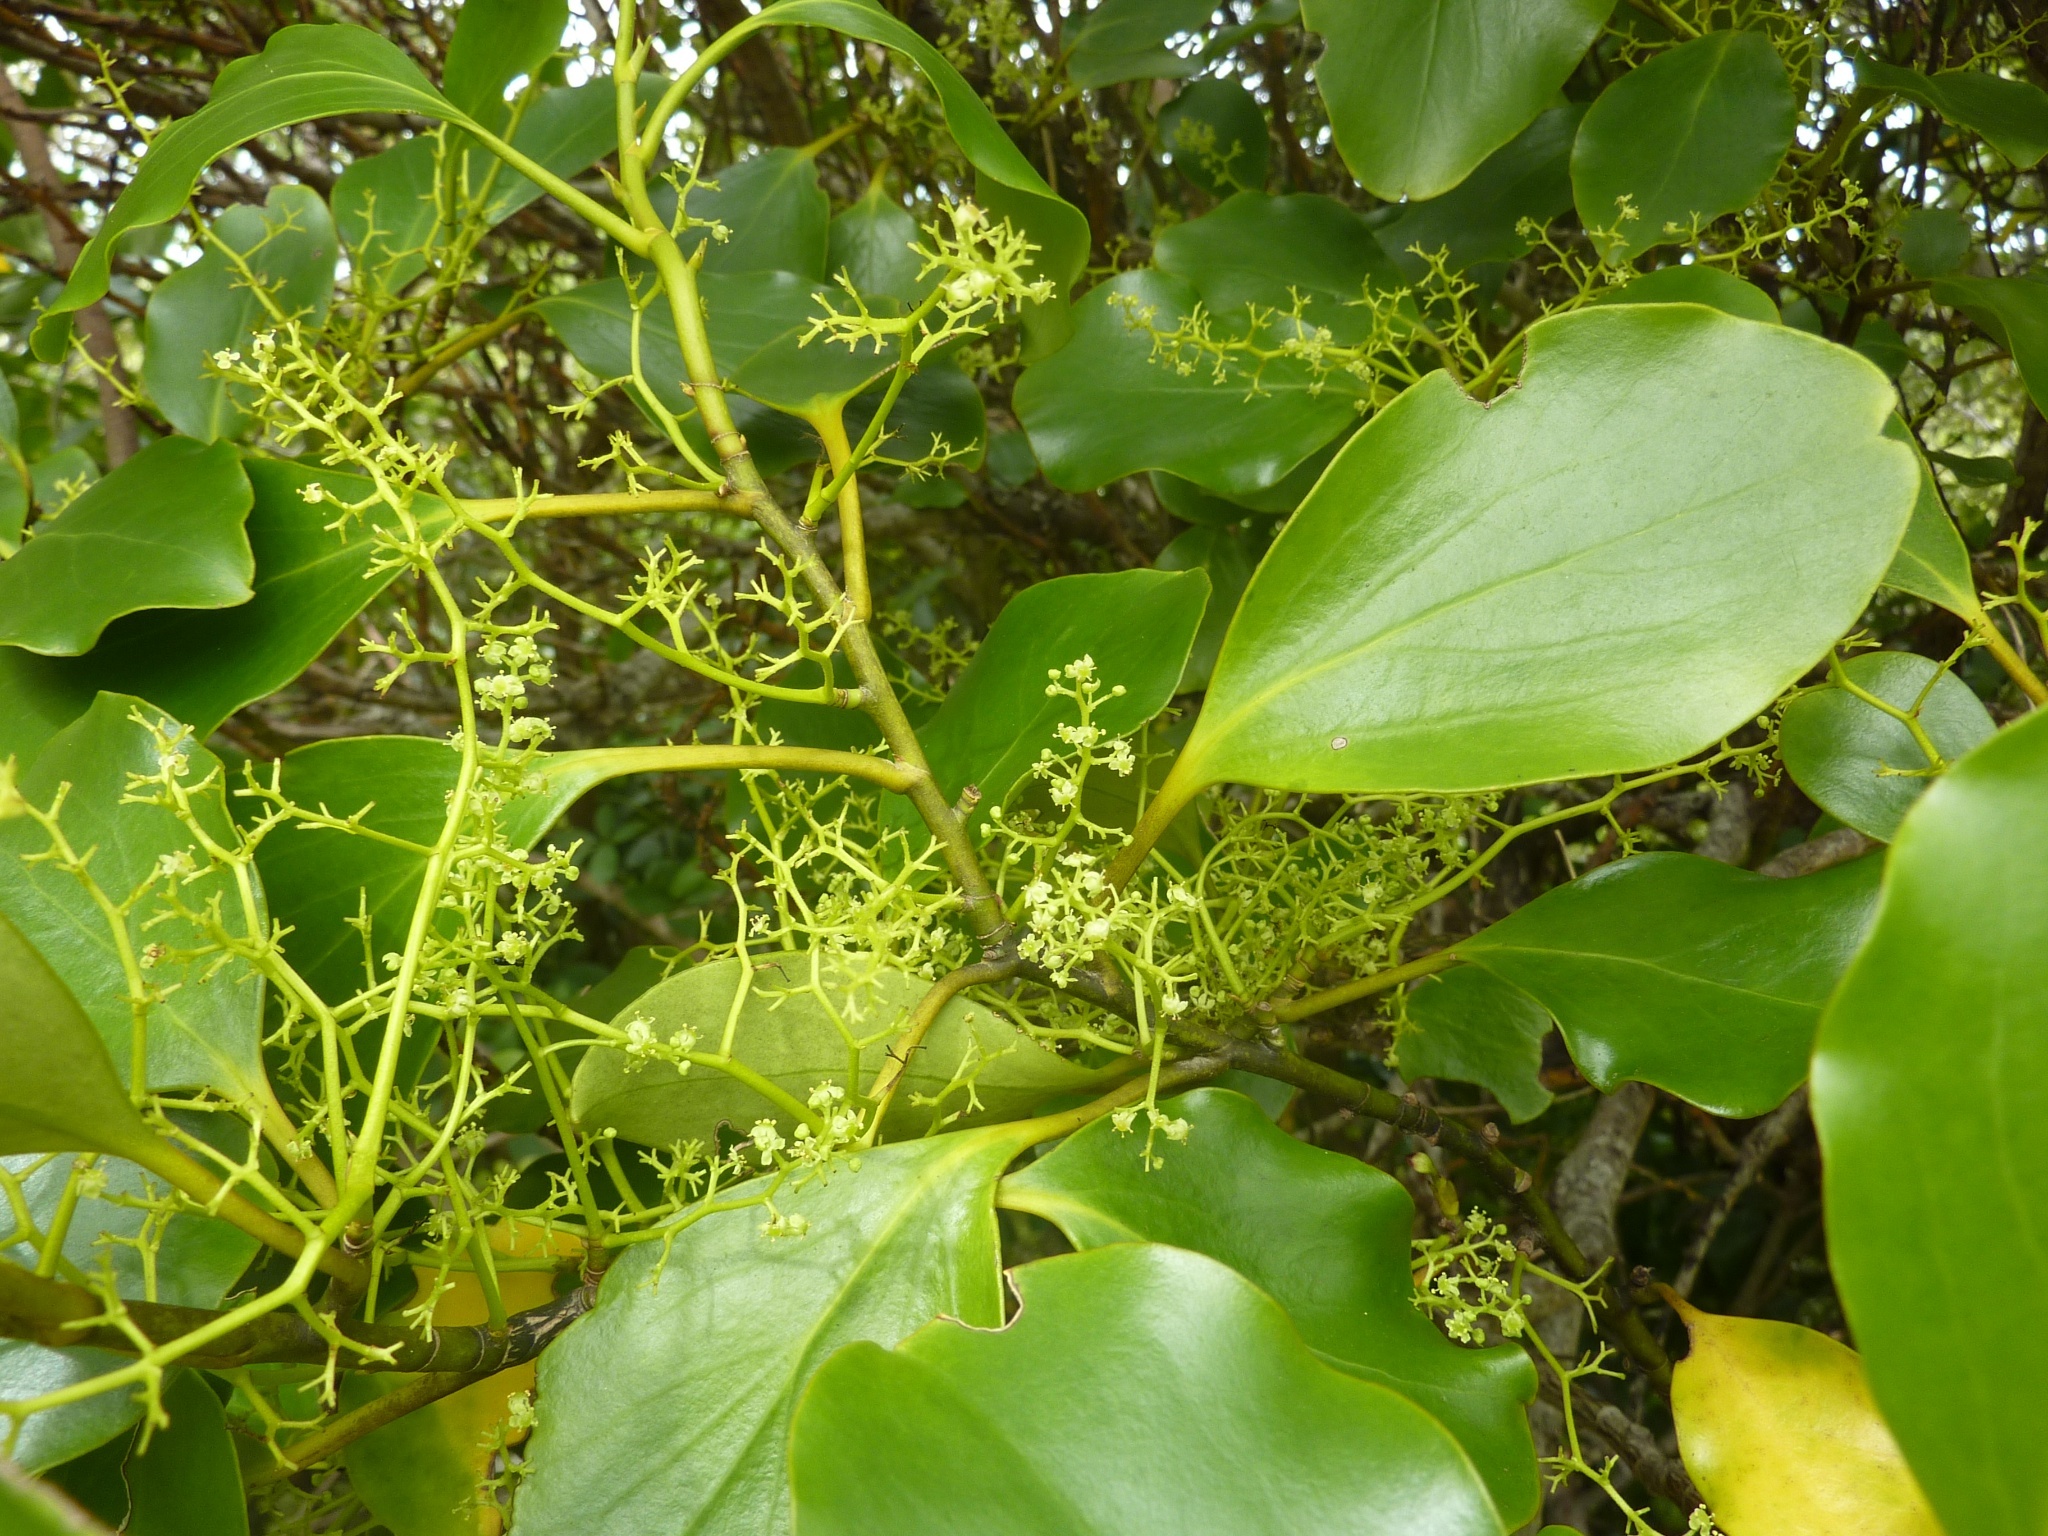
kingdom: Plantae
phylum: Tracheophyta
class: Magnoliopsida
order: Apiales
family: Griseliniaceae
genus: Griselinia
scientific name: Griselinia littoralis
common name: New zealand broadleaf
